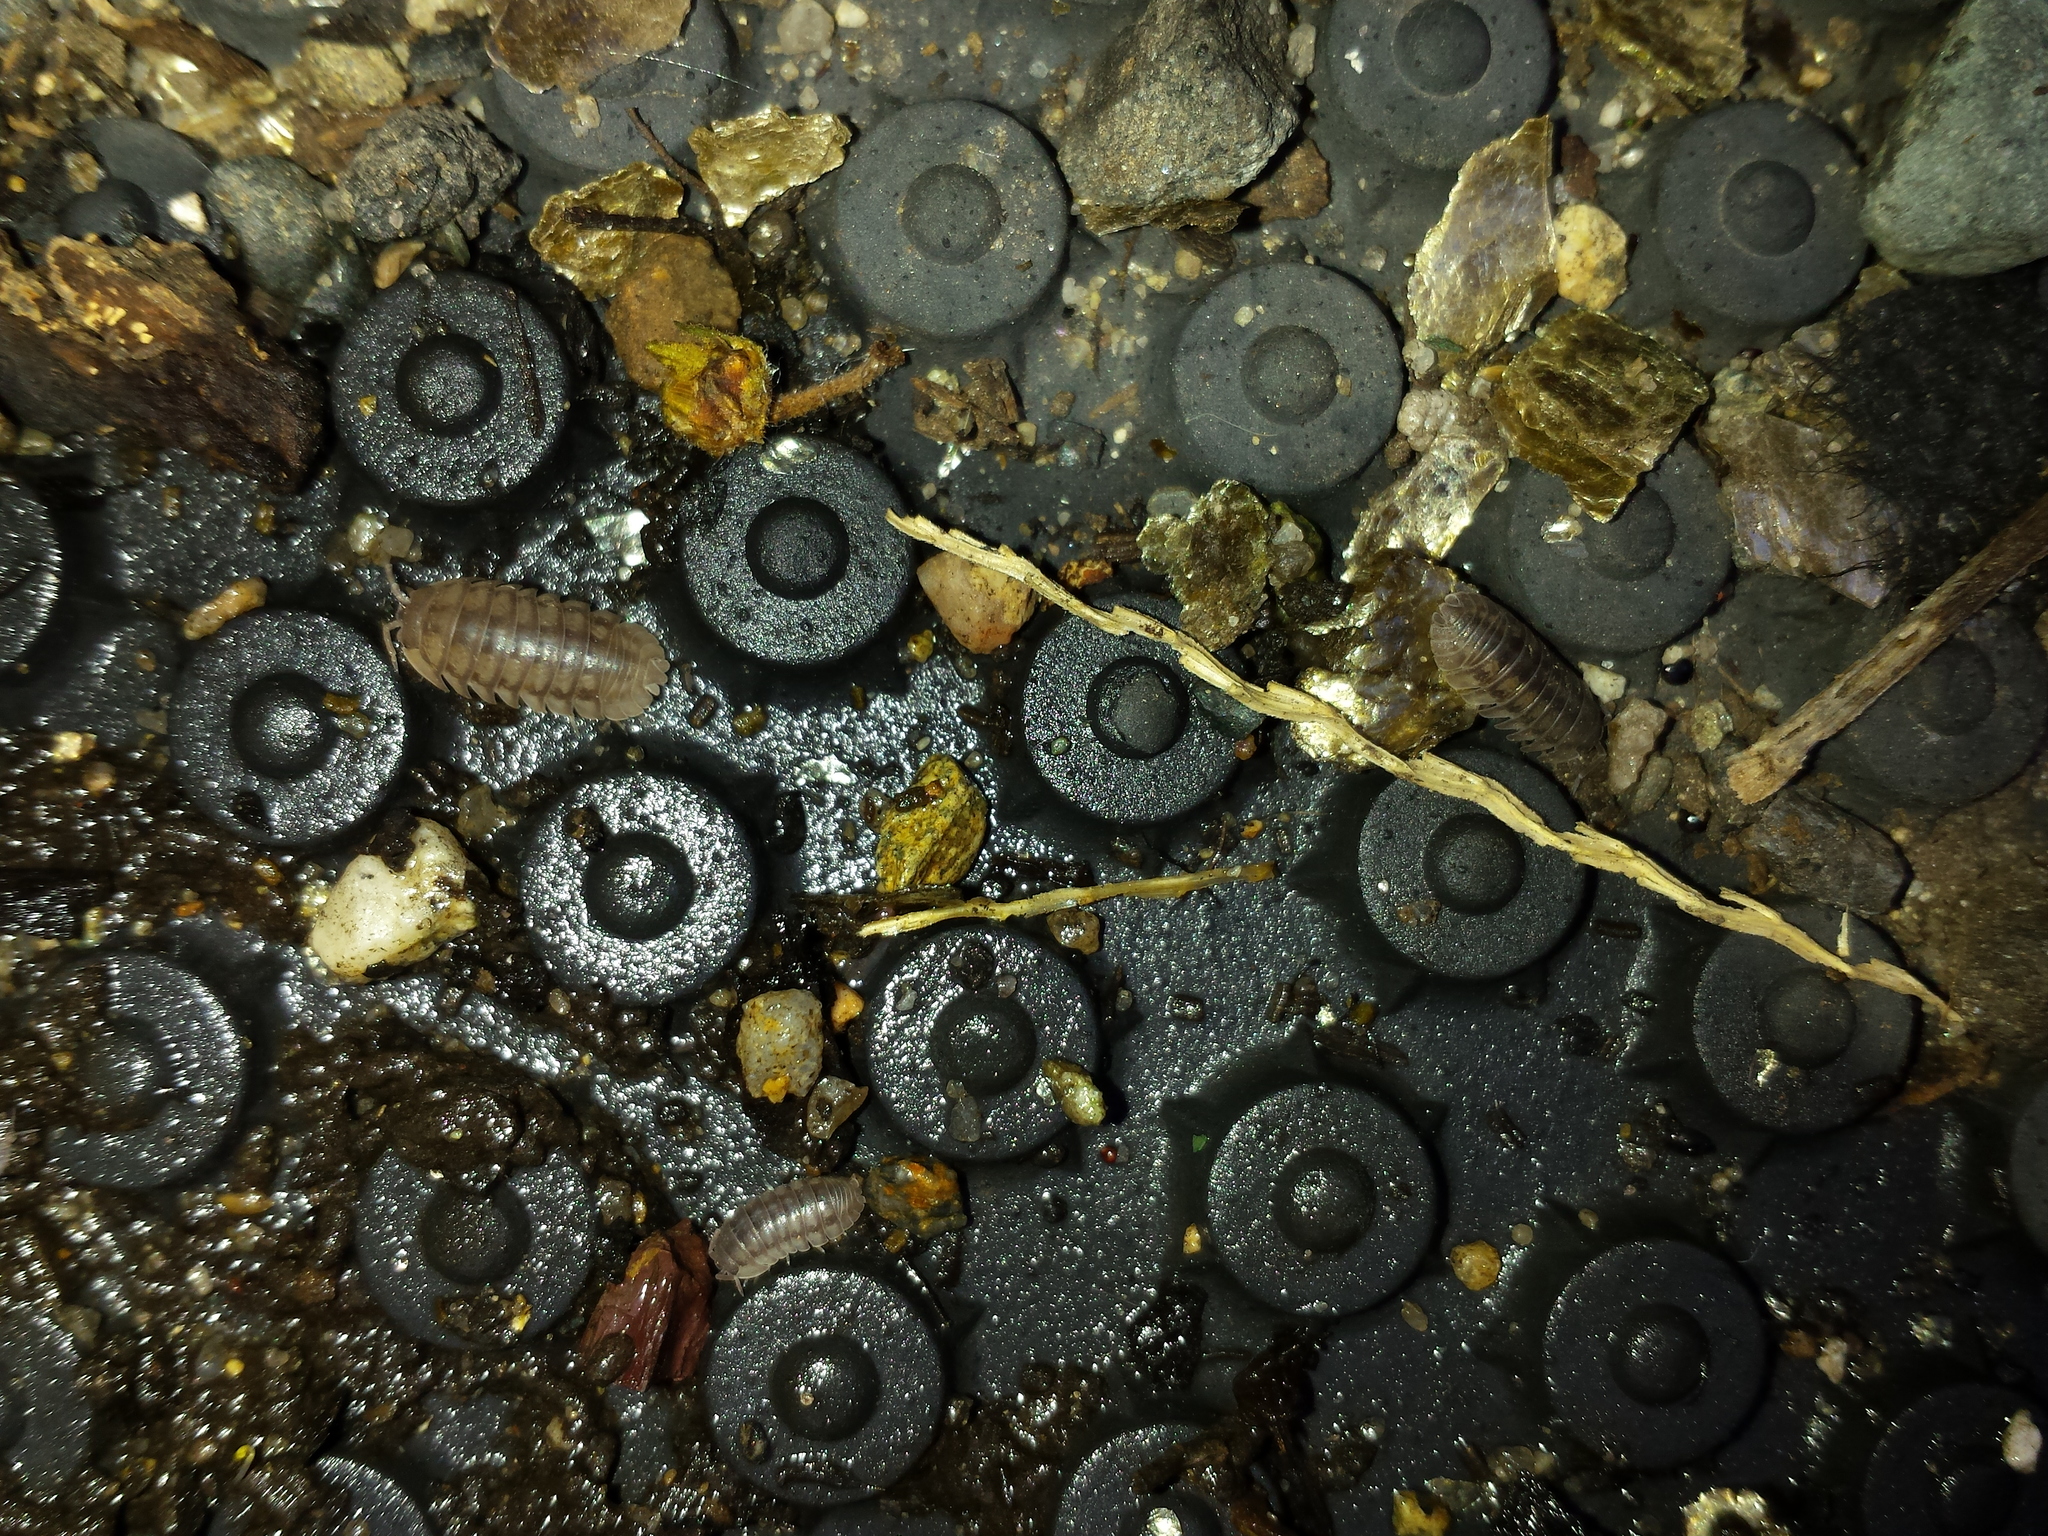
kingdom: Animalia
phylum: Arthropoda
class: Malacostraca
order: Isopoda
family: Armadillidiidae
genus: Armadillidium
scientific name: Armadillidium nasatum
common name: Isopod
